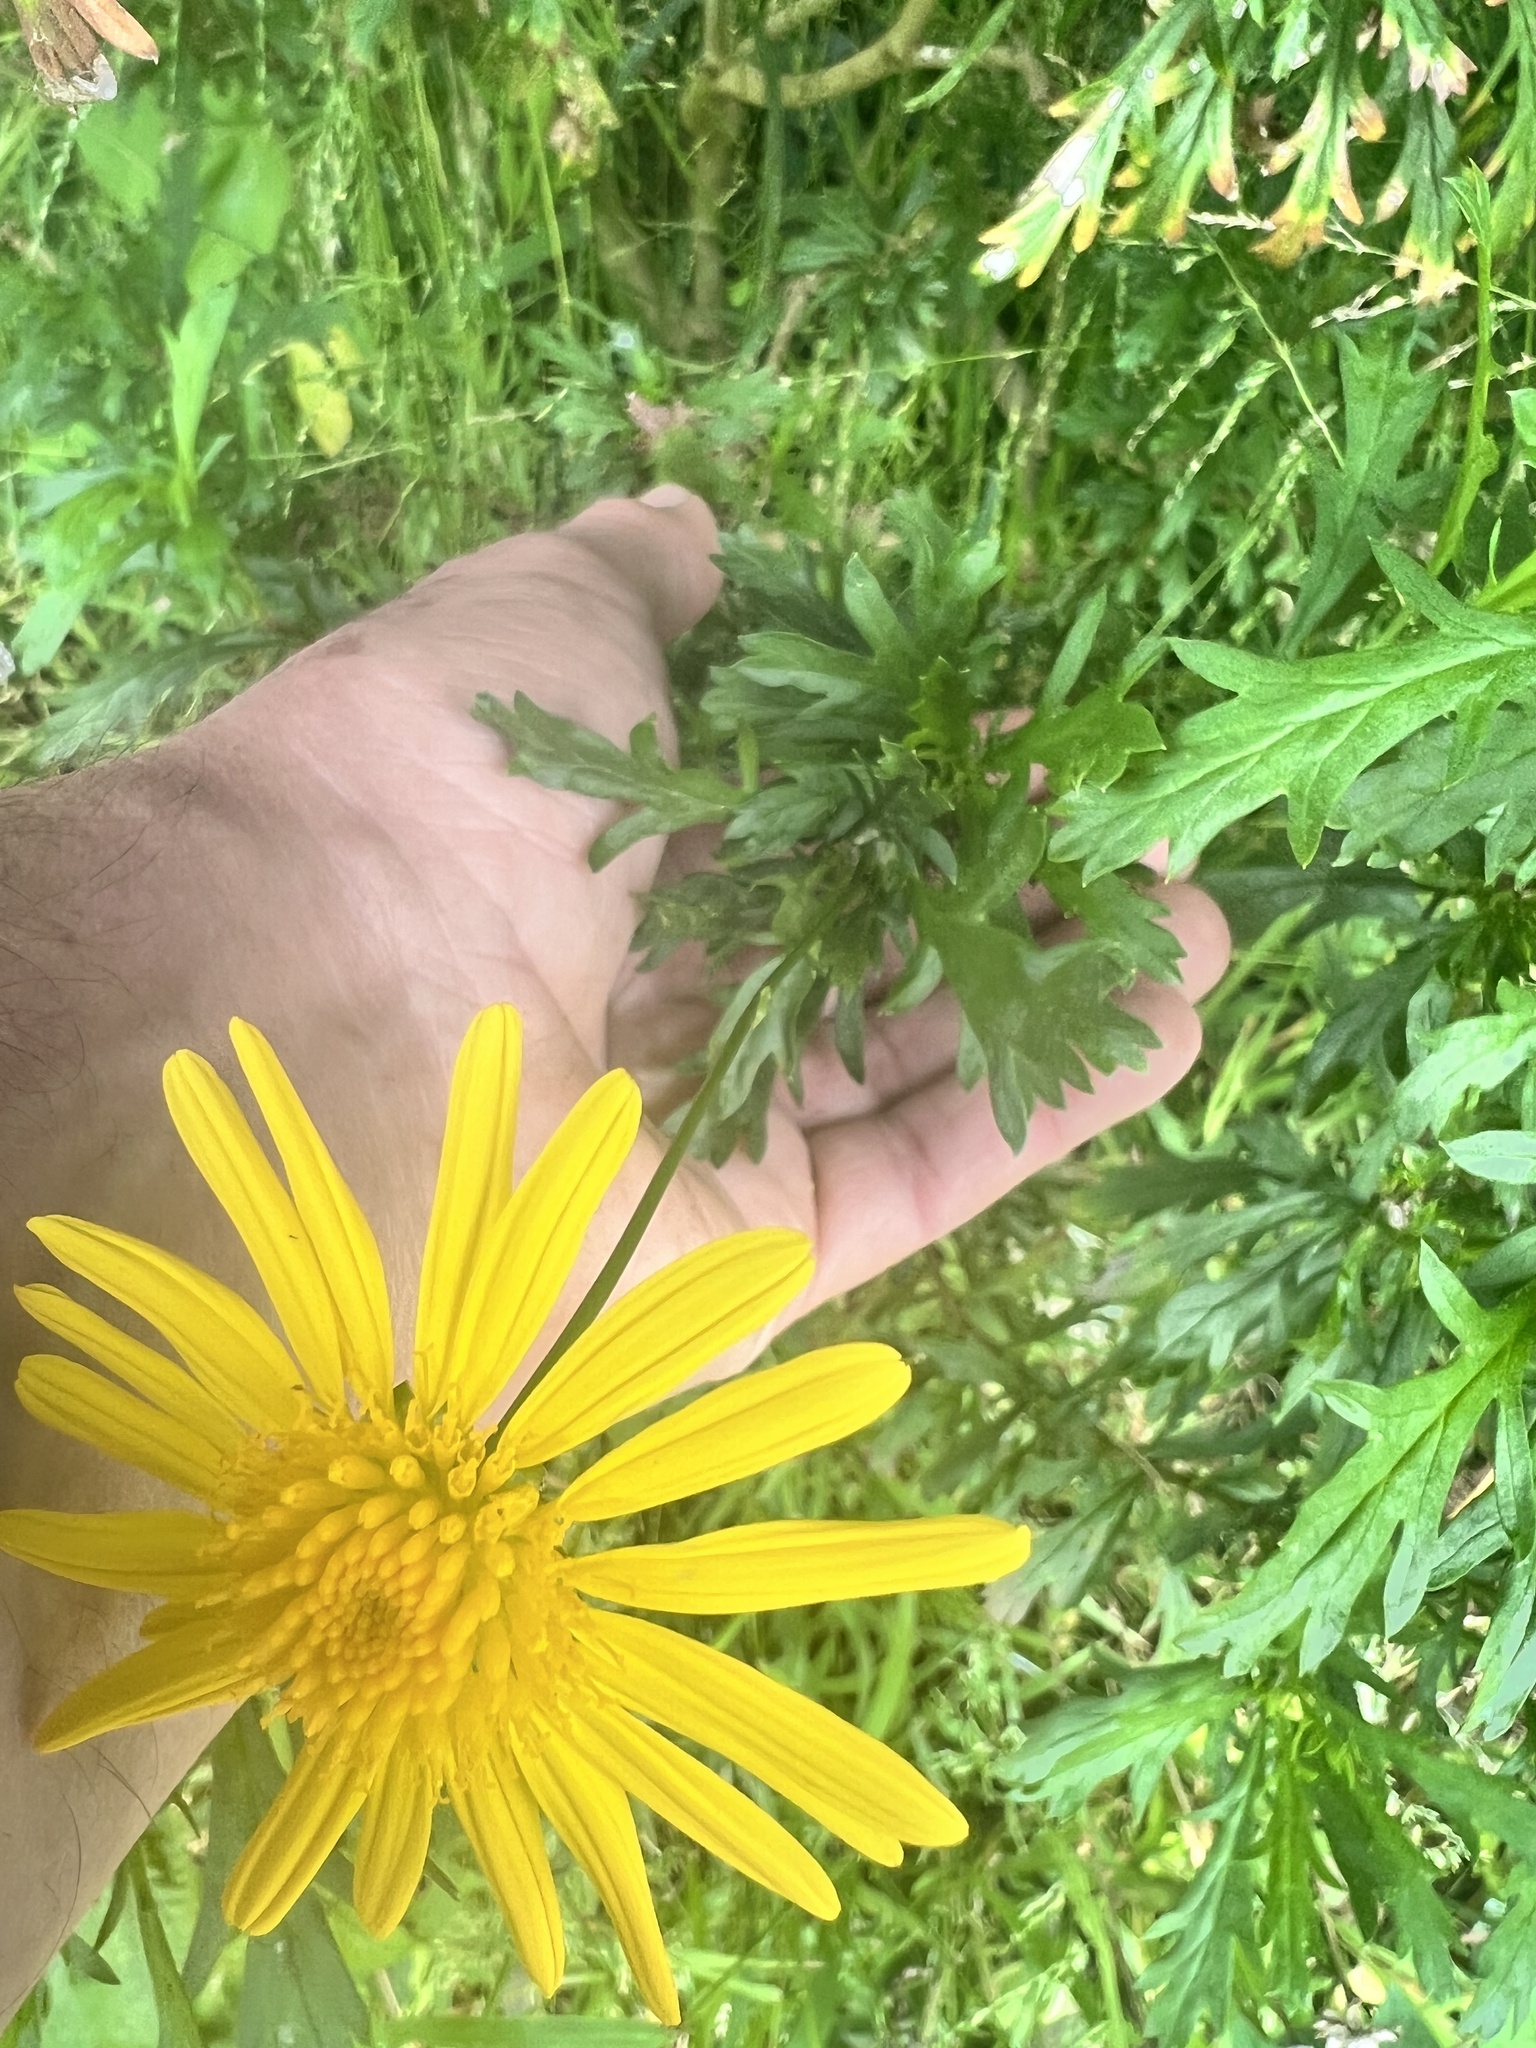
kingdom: Plantae
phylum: Tracheophyta
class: Magnoliopsida
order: Asterales
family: Asteraceae
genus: Euryops
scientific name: Euryops chrysanthemoides
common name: Bull's eye
